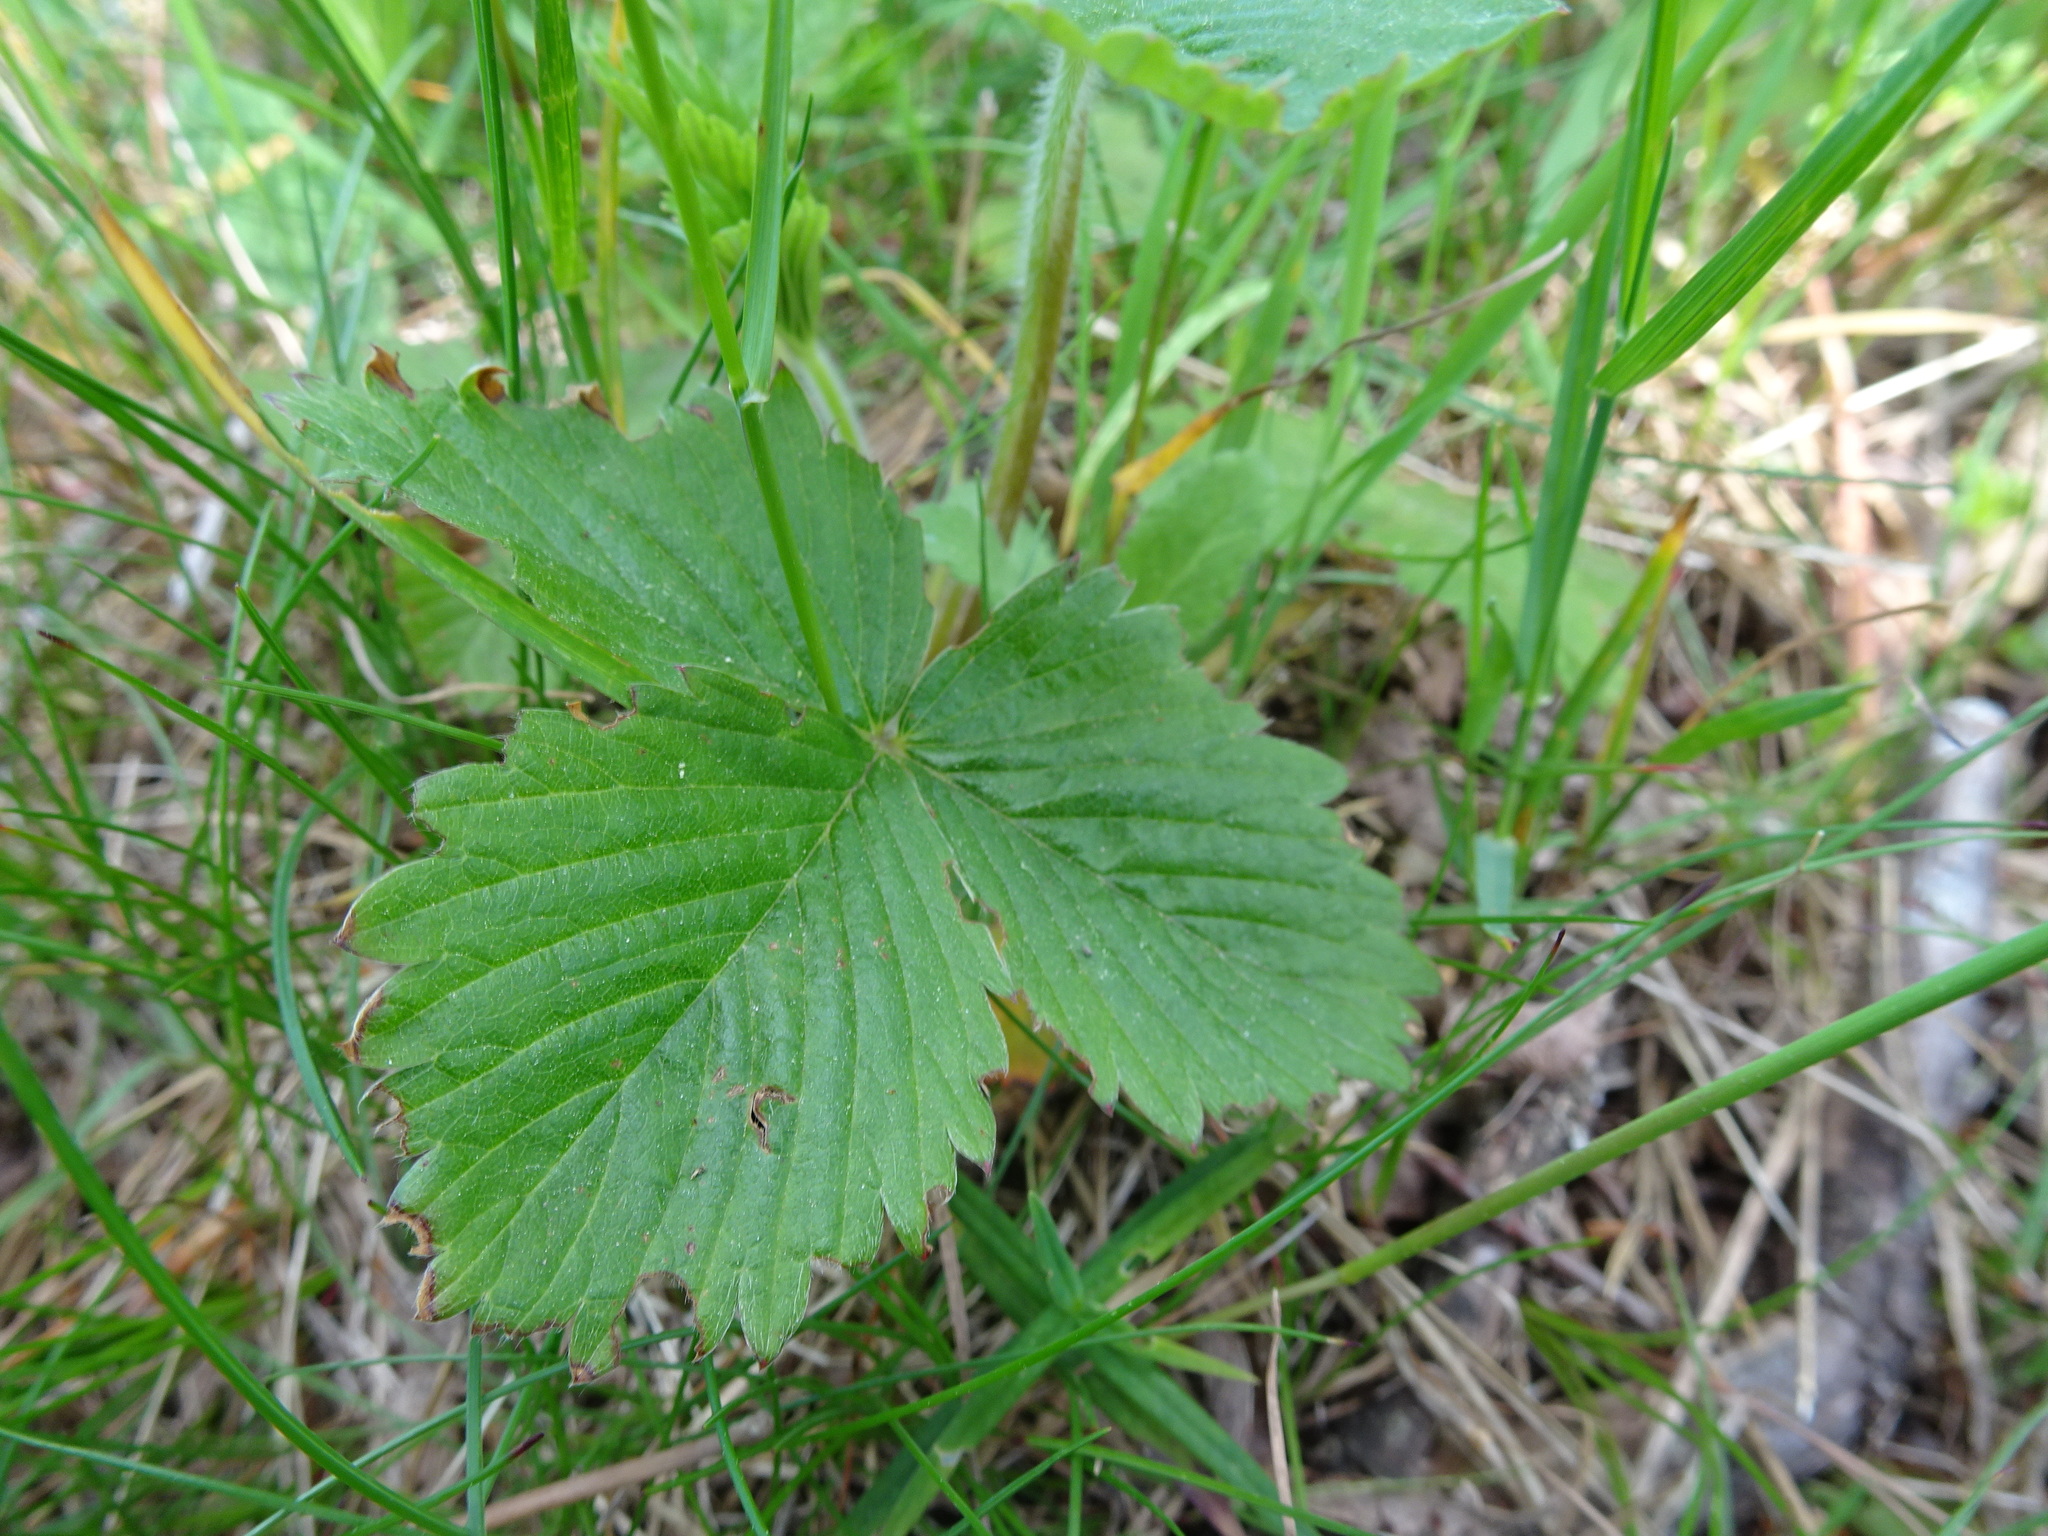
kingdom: Plantae
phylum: Tracheophyta
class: Magnoliopsida
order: Rosales
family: Rosaceae
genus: Fragaria
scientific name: Fragaria vesca
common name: Wild strawberry
